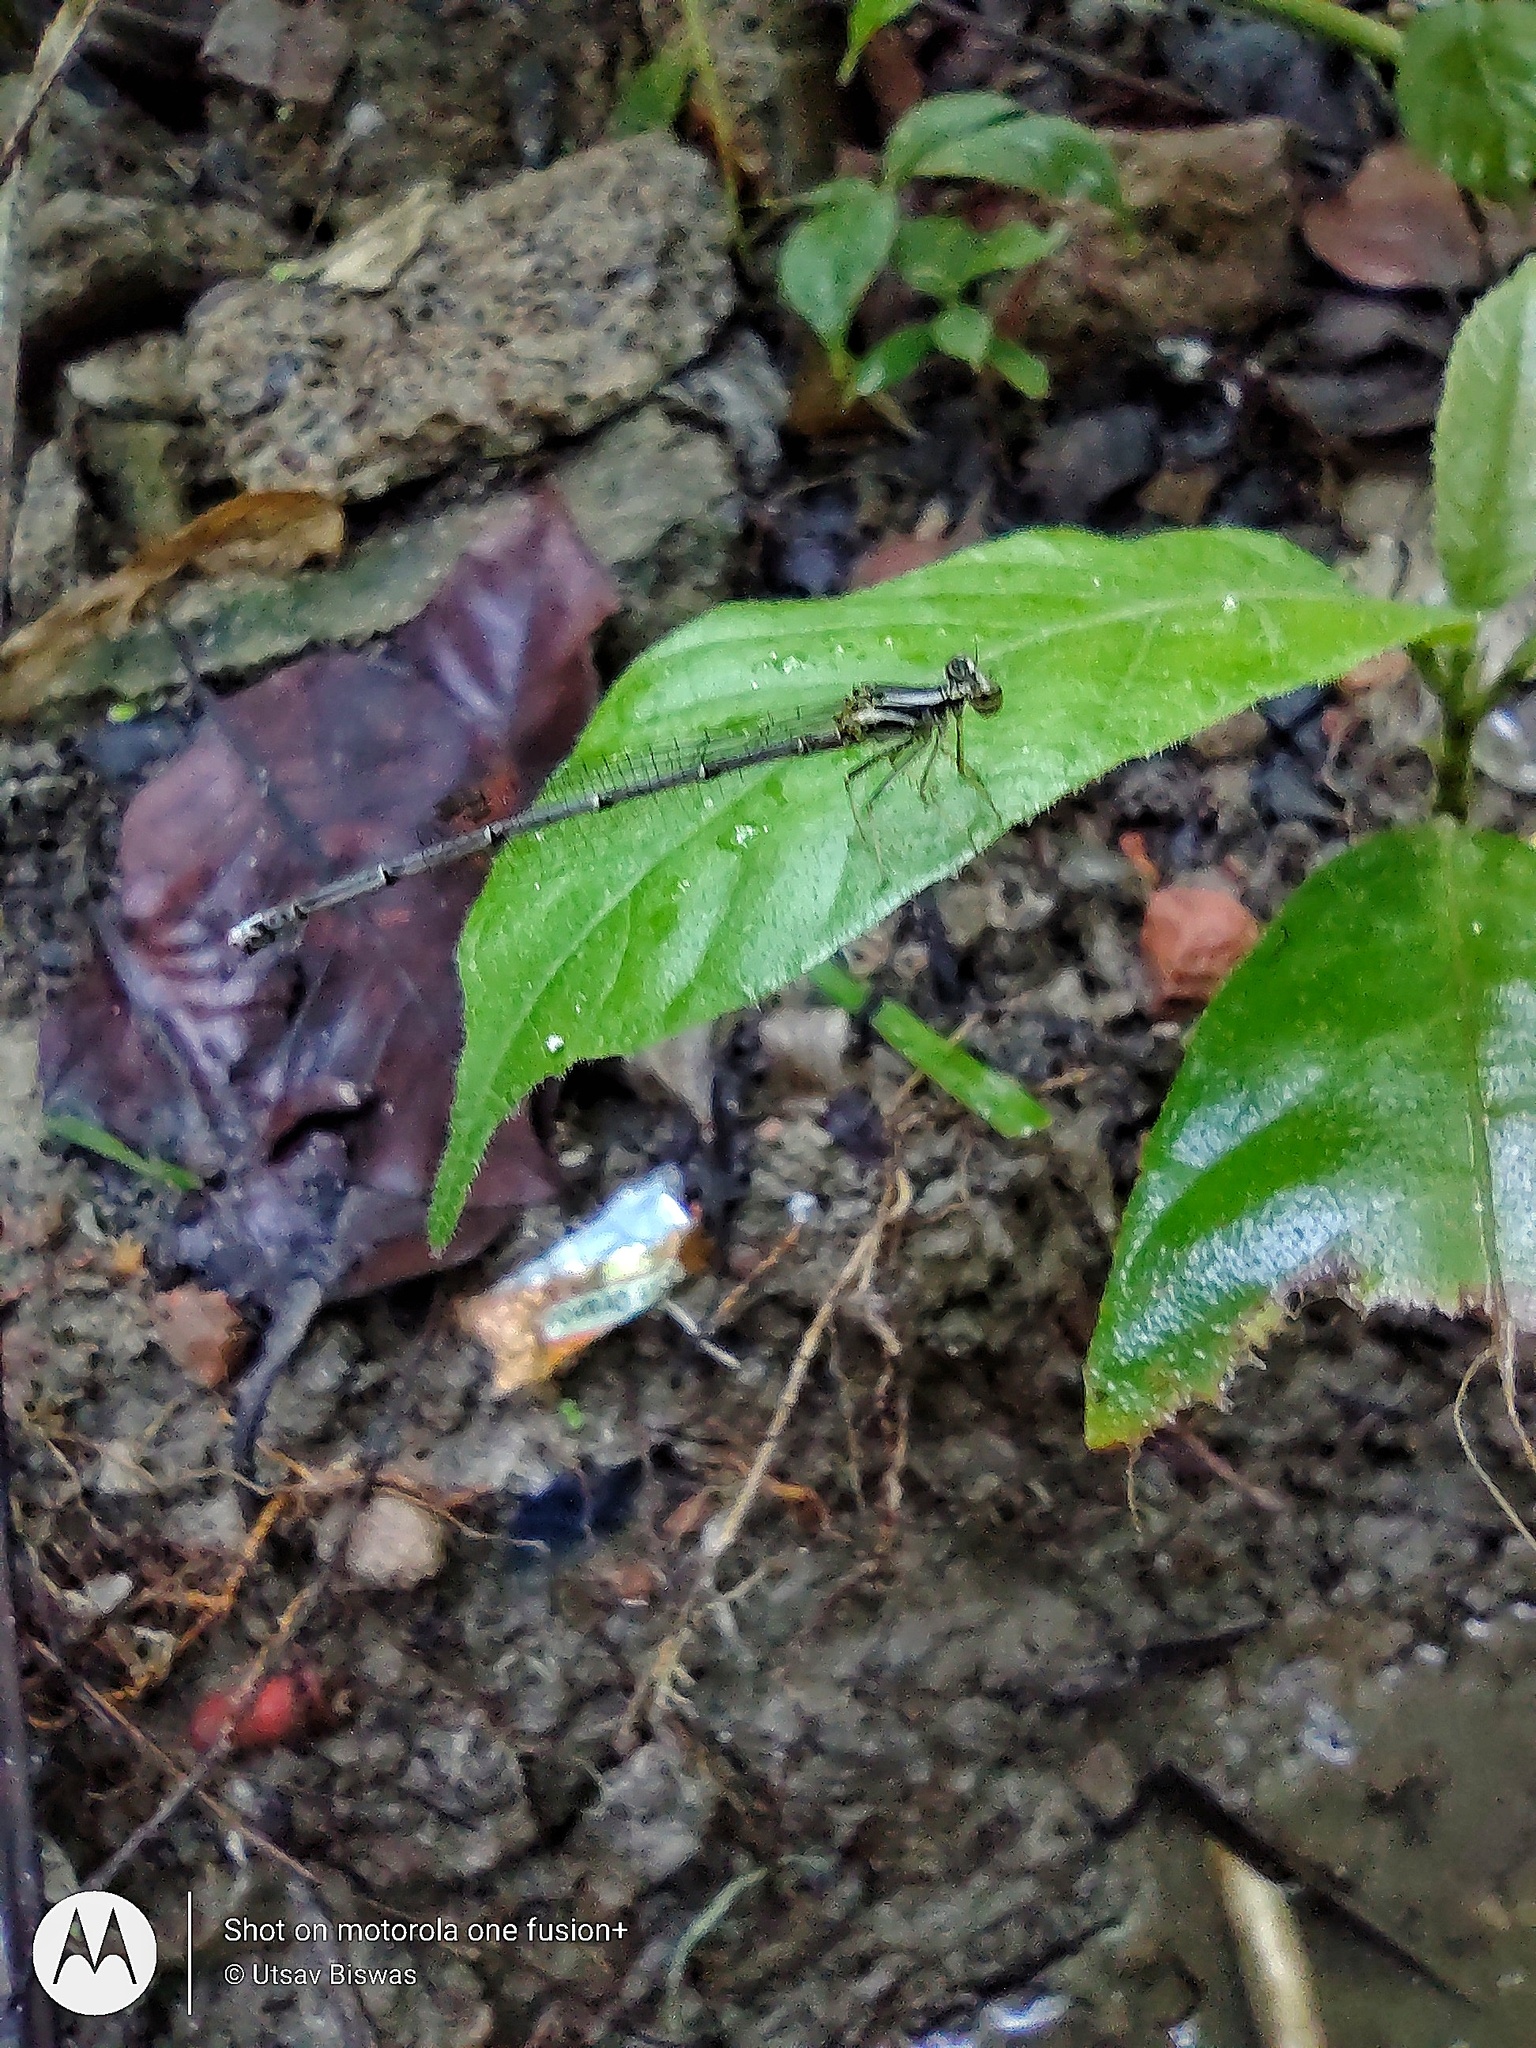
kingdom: Animalia
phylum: Arthropoda
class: Insecta
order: Odonata
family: Platycnemididae
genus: Copera
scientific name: Copera marginipes
